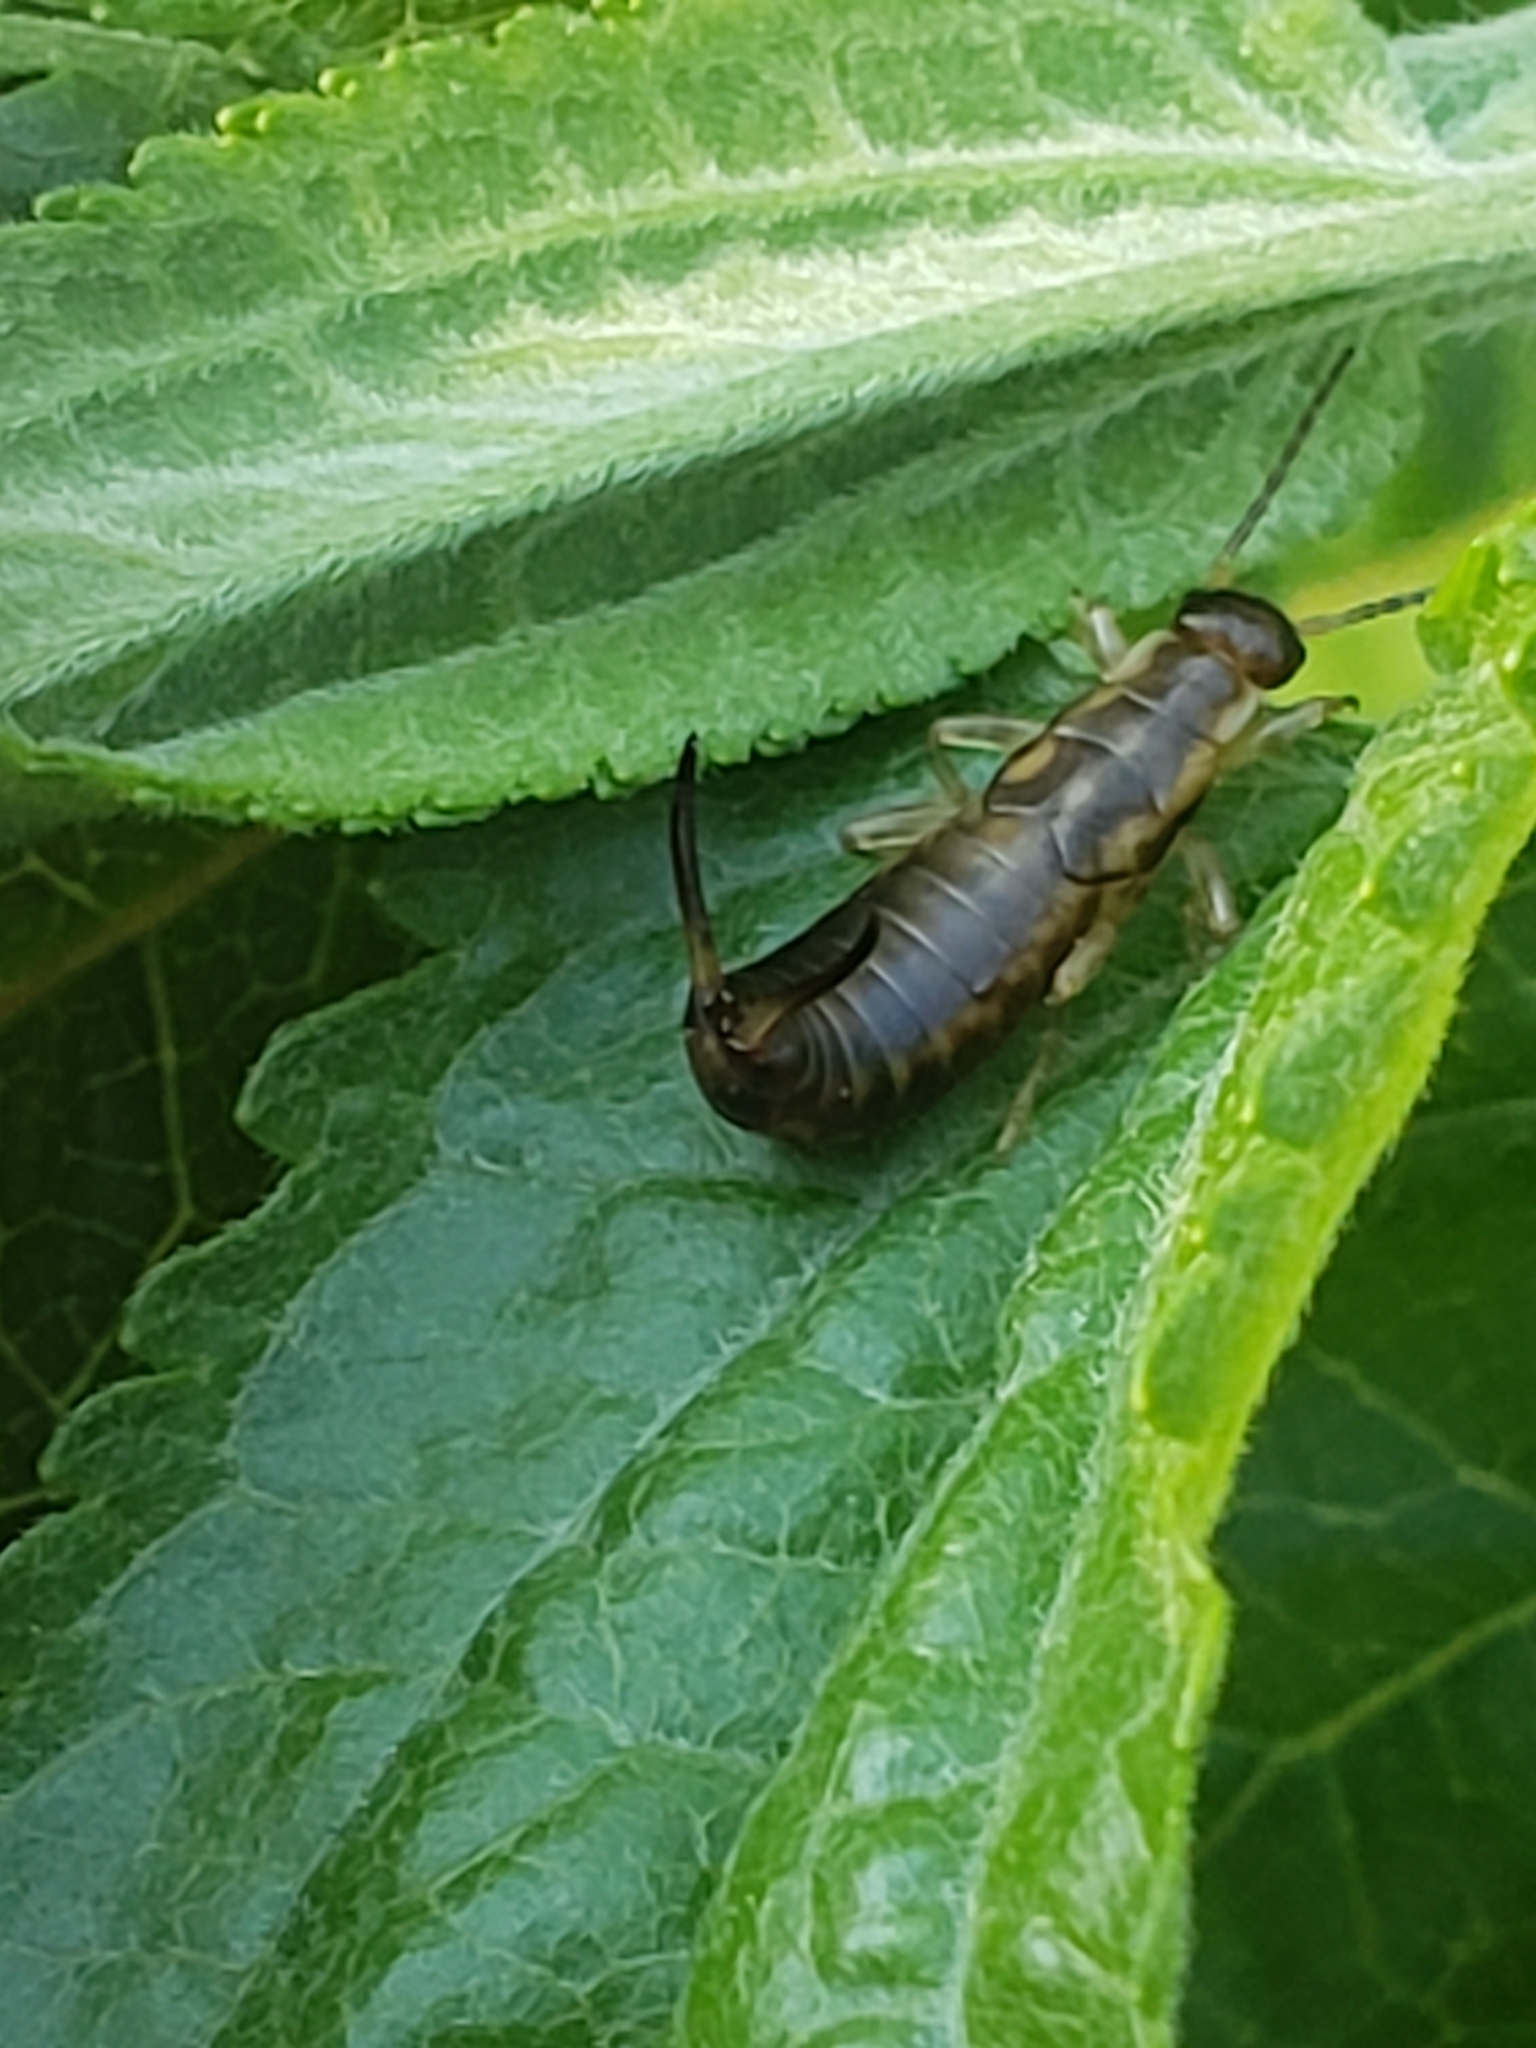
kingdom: Animalia
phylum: Arthropoda
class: Insecta
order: Dermaptera
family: Forficulidae
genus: Forficula
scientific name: Forficula
